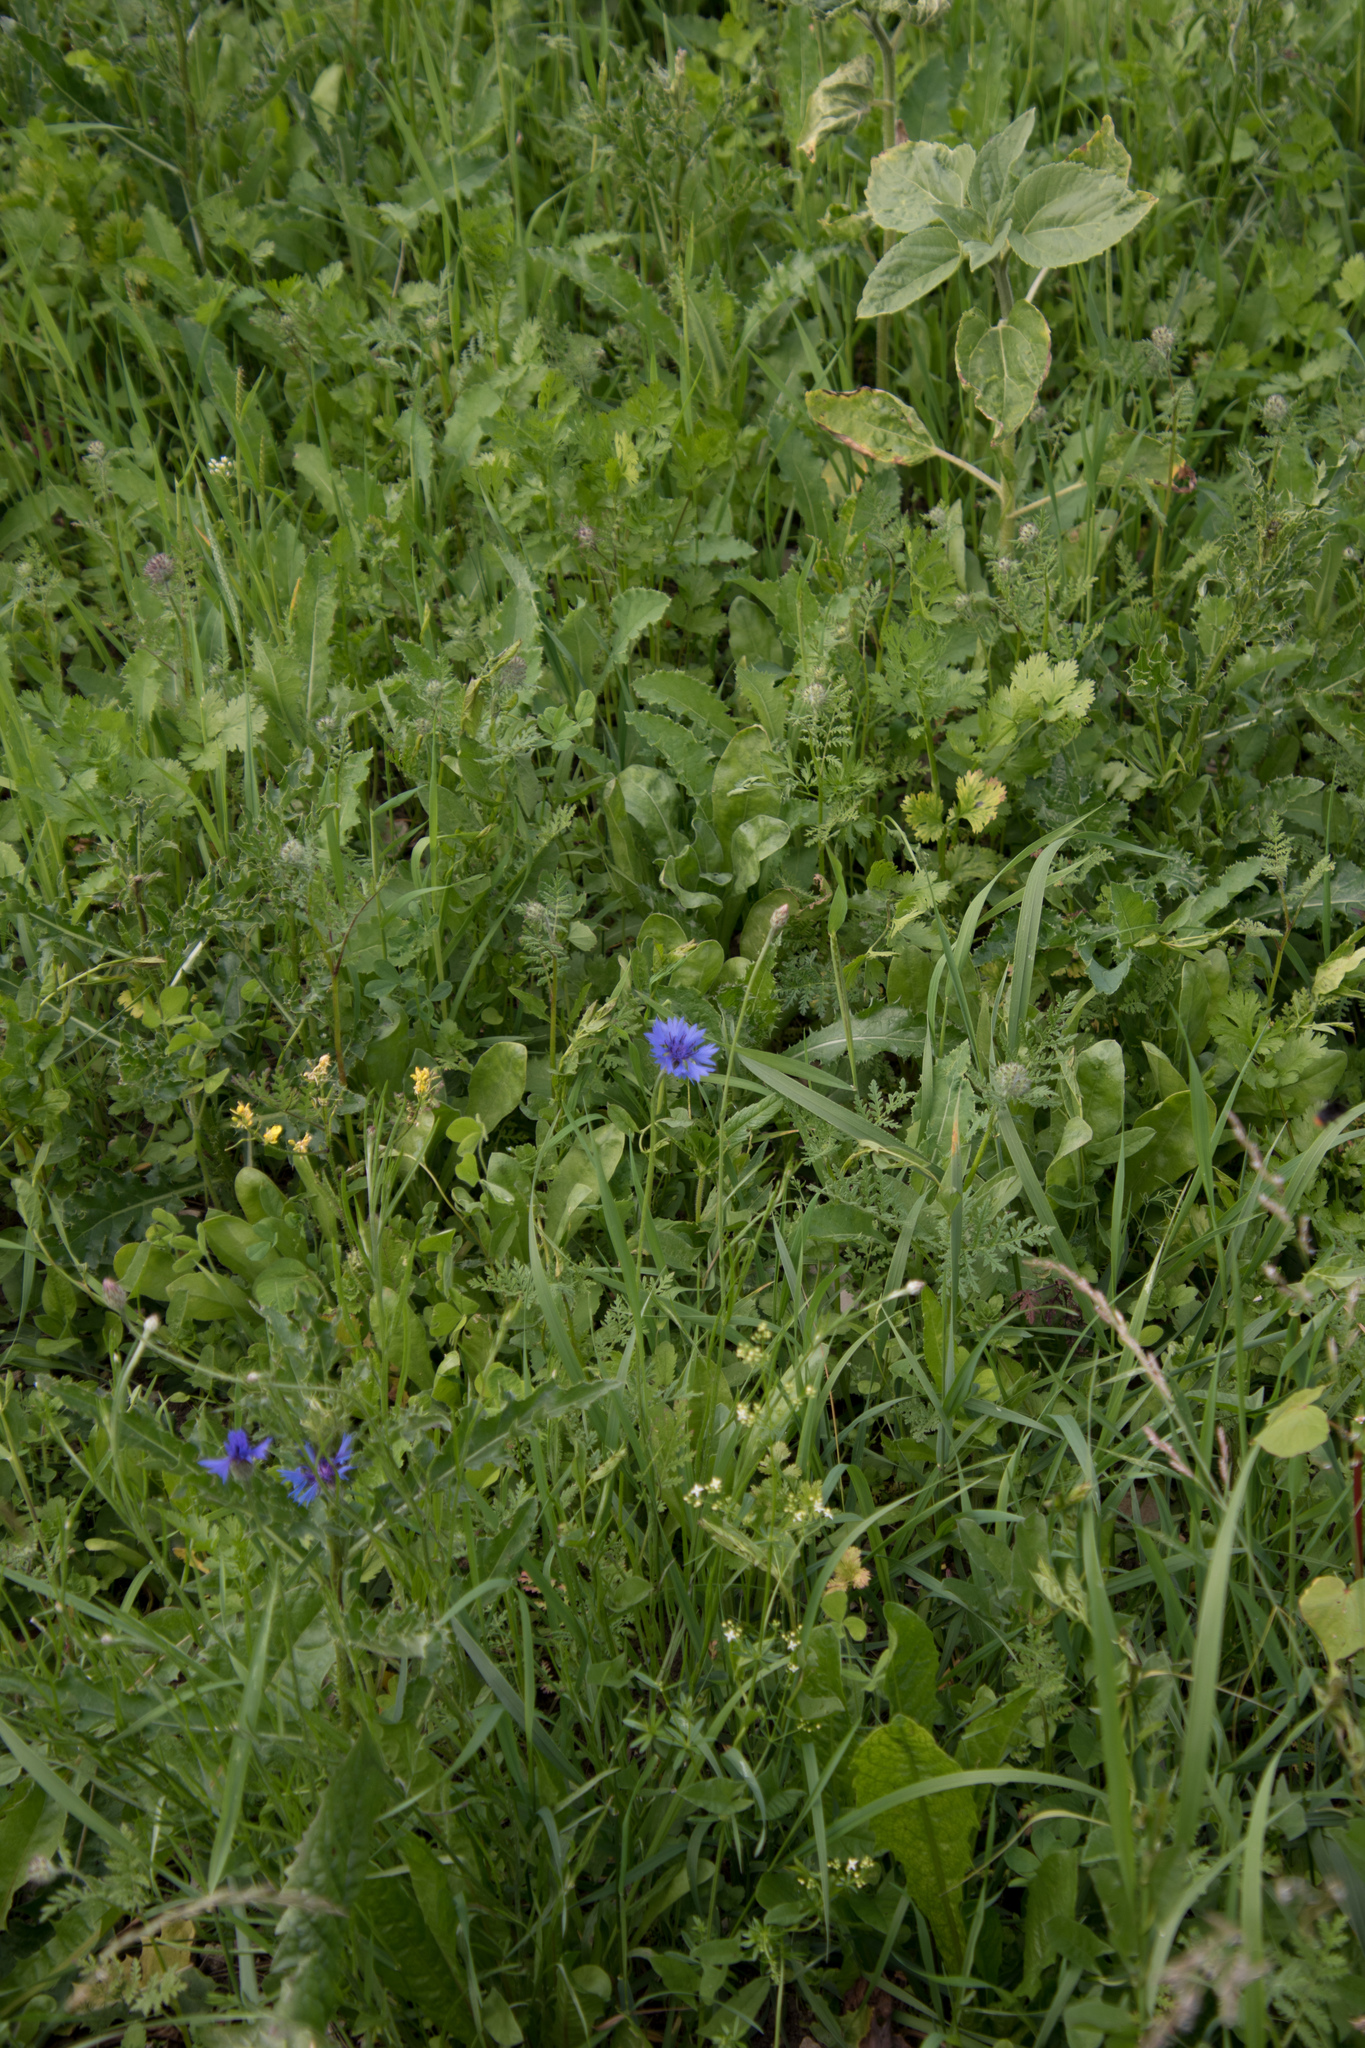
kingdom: Plantae
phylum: Tracheophyta
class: Magnoliopsida
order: Asterales
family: Asteraceae
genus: Centaurea
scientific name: Centaurea cyanus
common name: Cornflower
